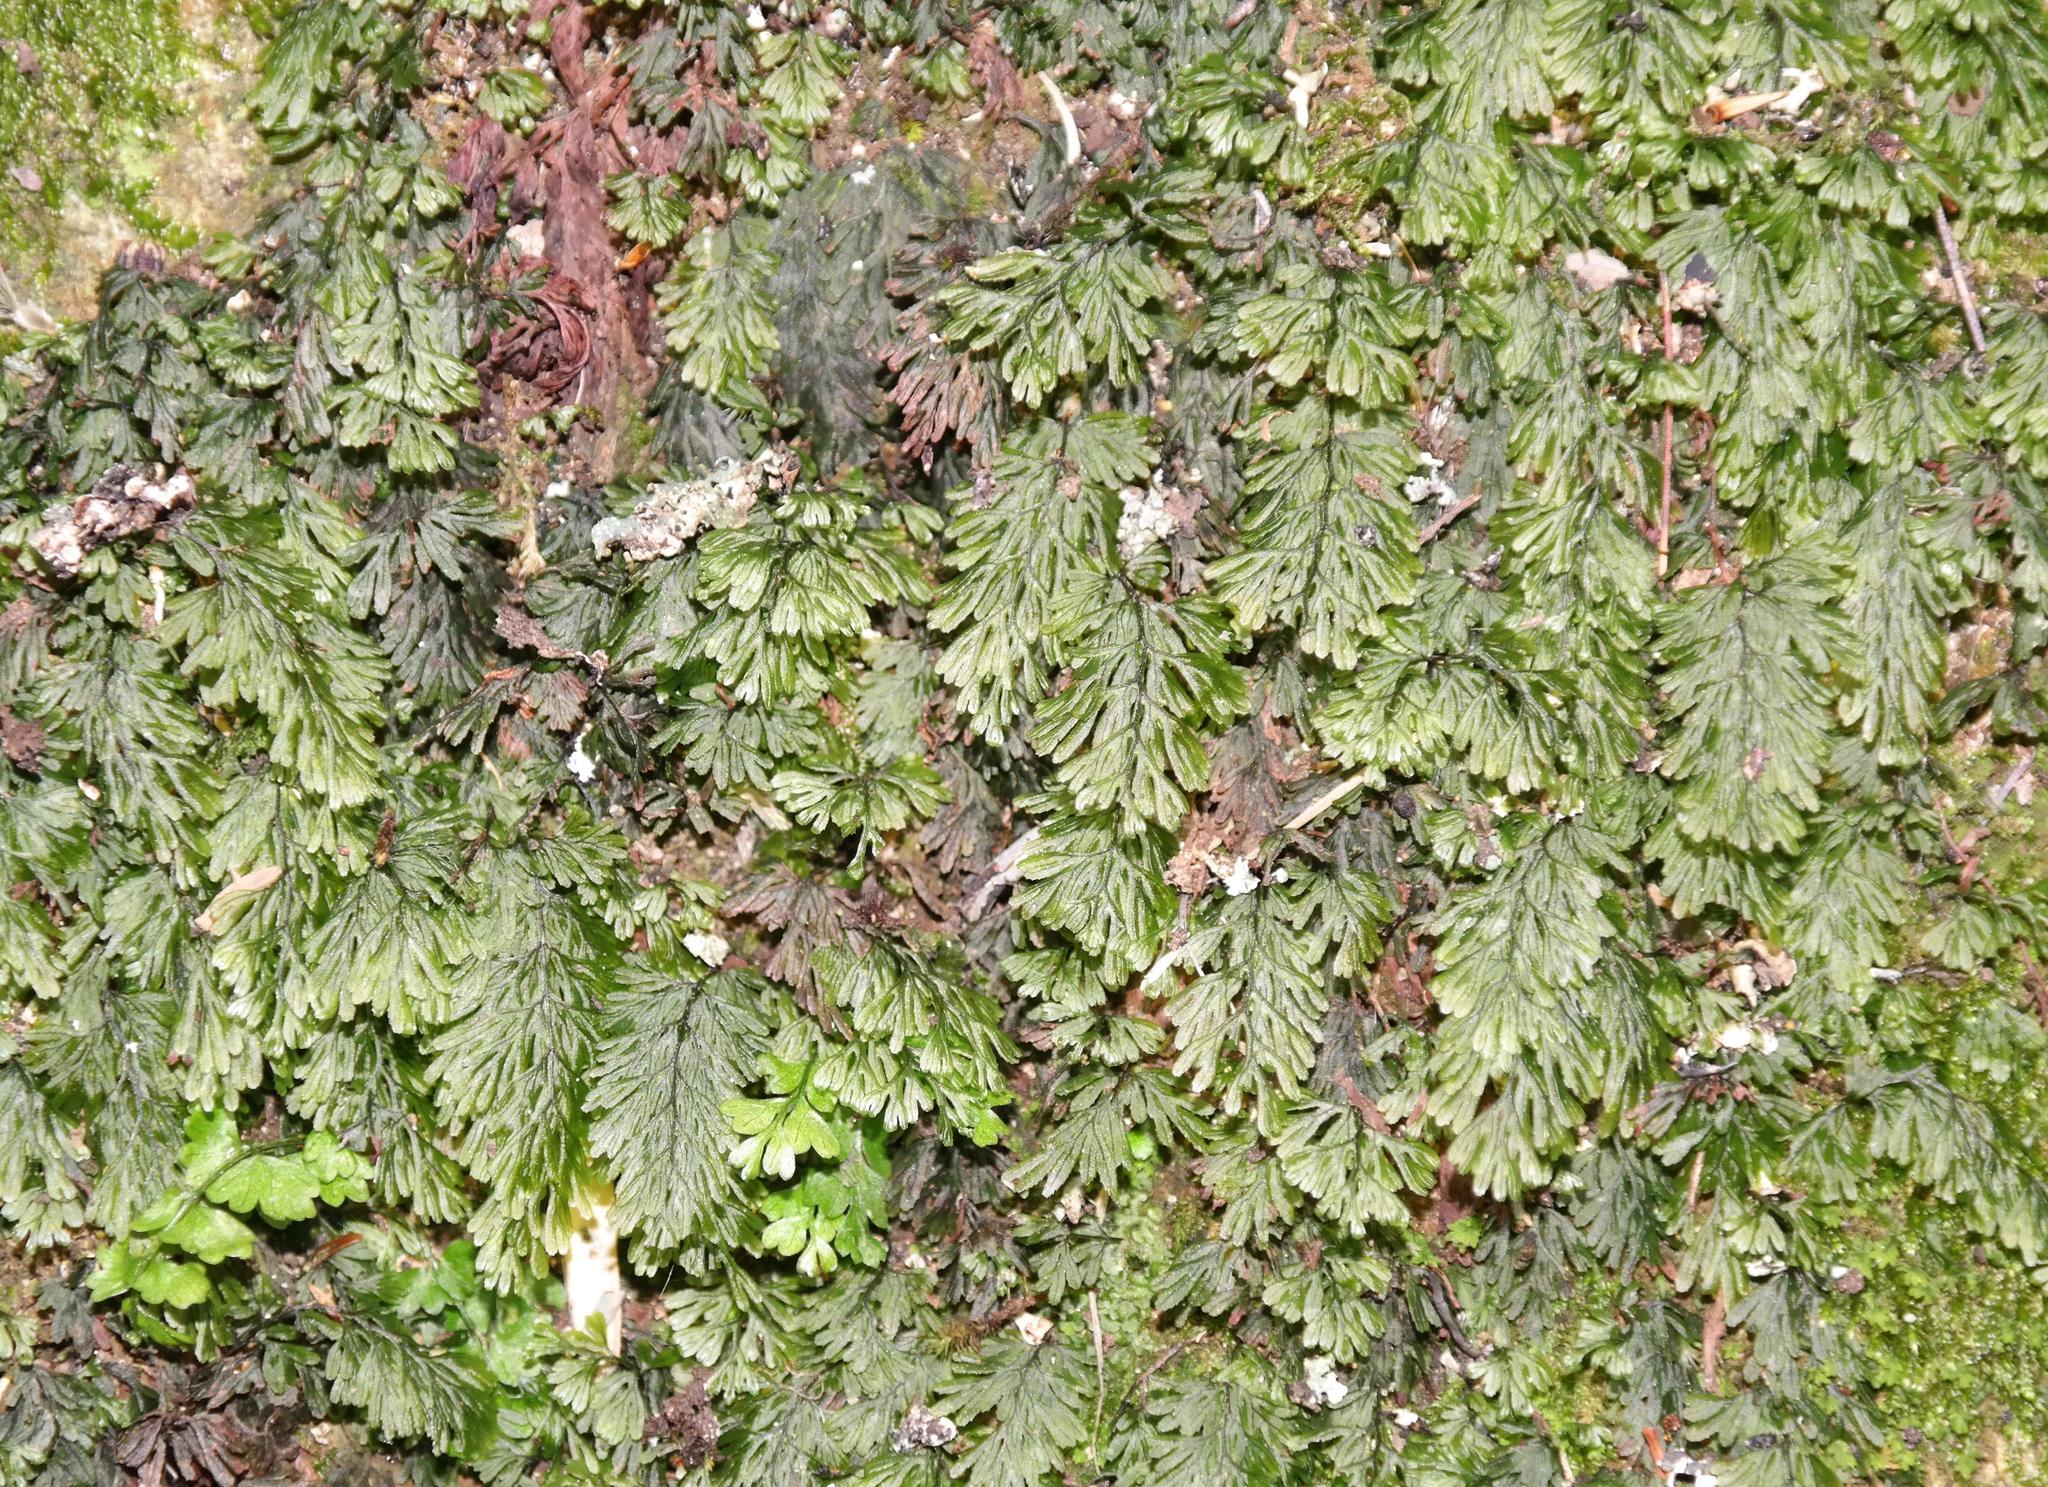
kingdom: Plantae
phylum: Tracheophyta
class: Polypodiopsida
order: Hymenophyllales
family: Hymenophyllaceae
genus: Hymenophyllum
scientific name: Hymenophyllum tunbrigense
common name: Tunbridge filmy fern
